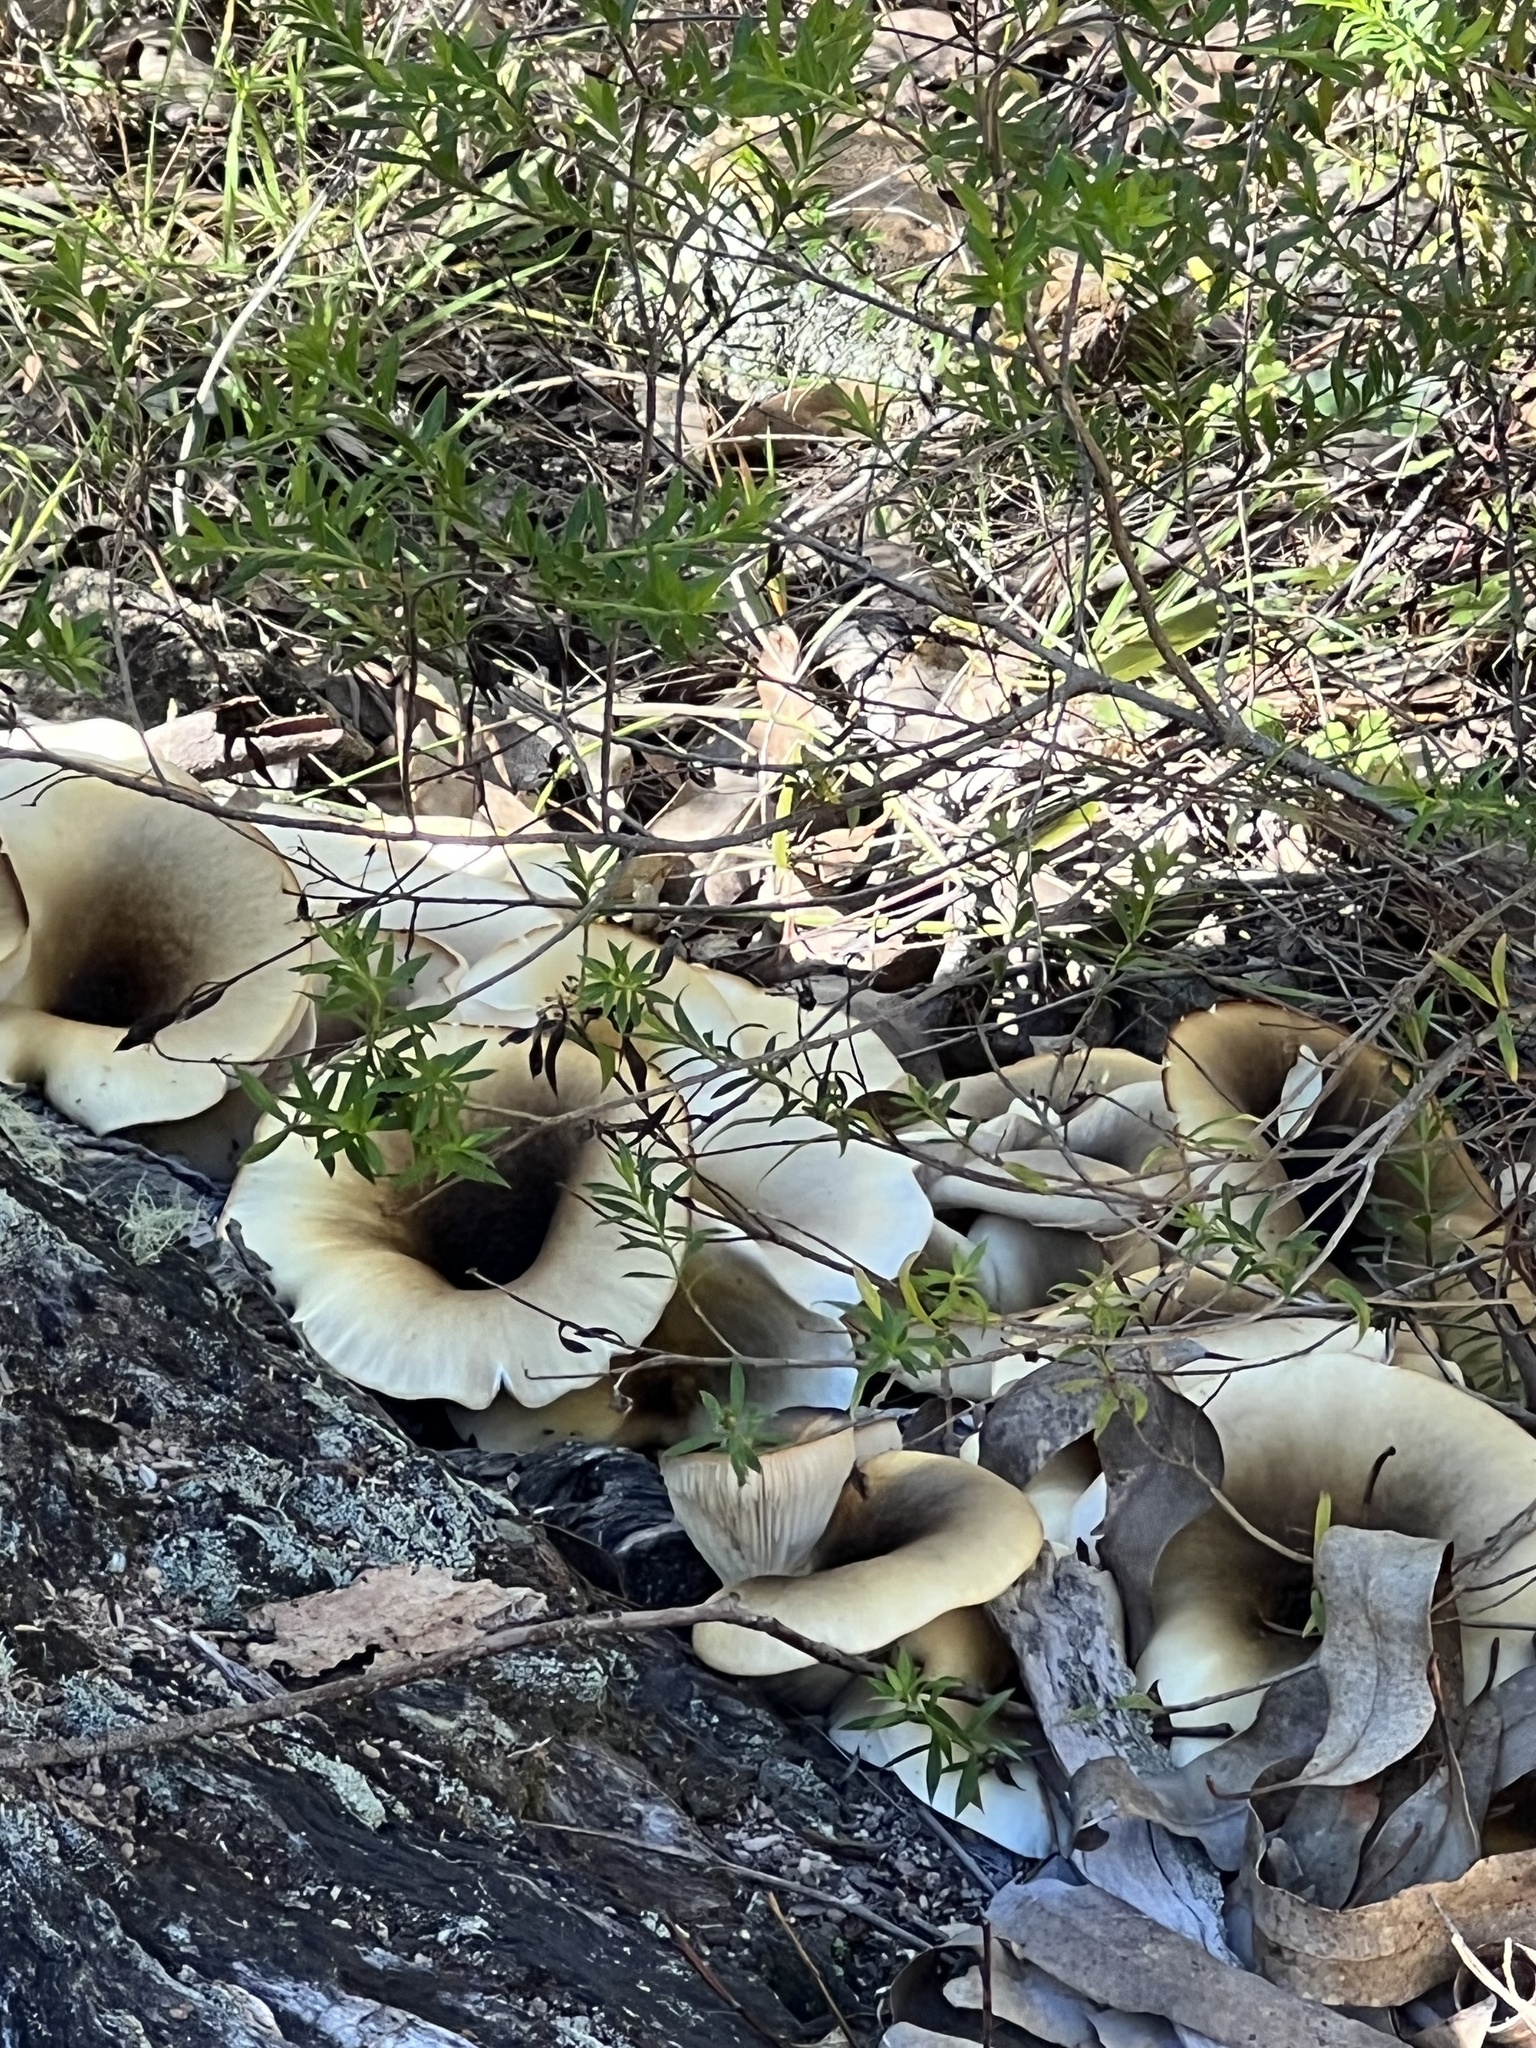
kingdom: Fungi
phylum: Basidiomycota
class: Agaricomycetes
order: Agaricales
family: Omphalotaceae
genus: Omphalotus
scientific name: Omphalotus nidiformis
